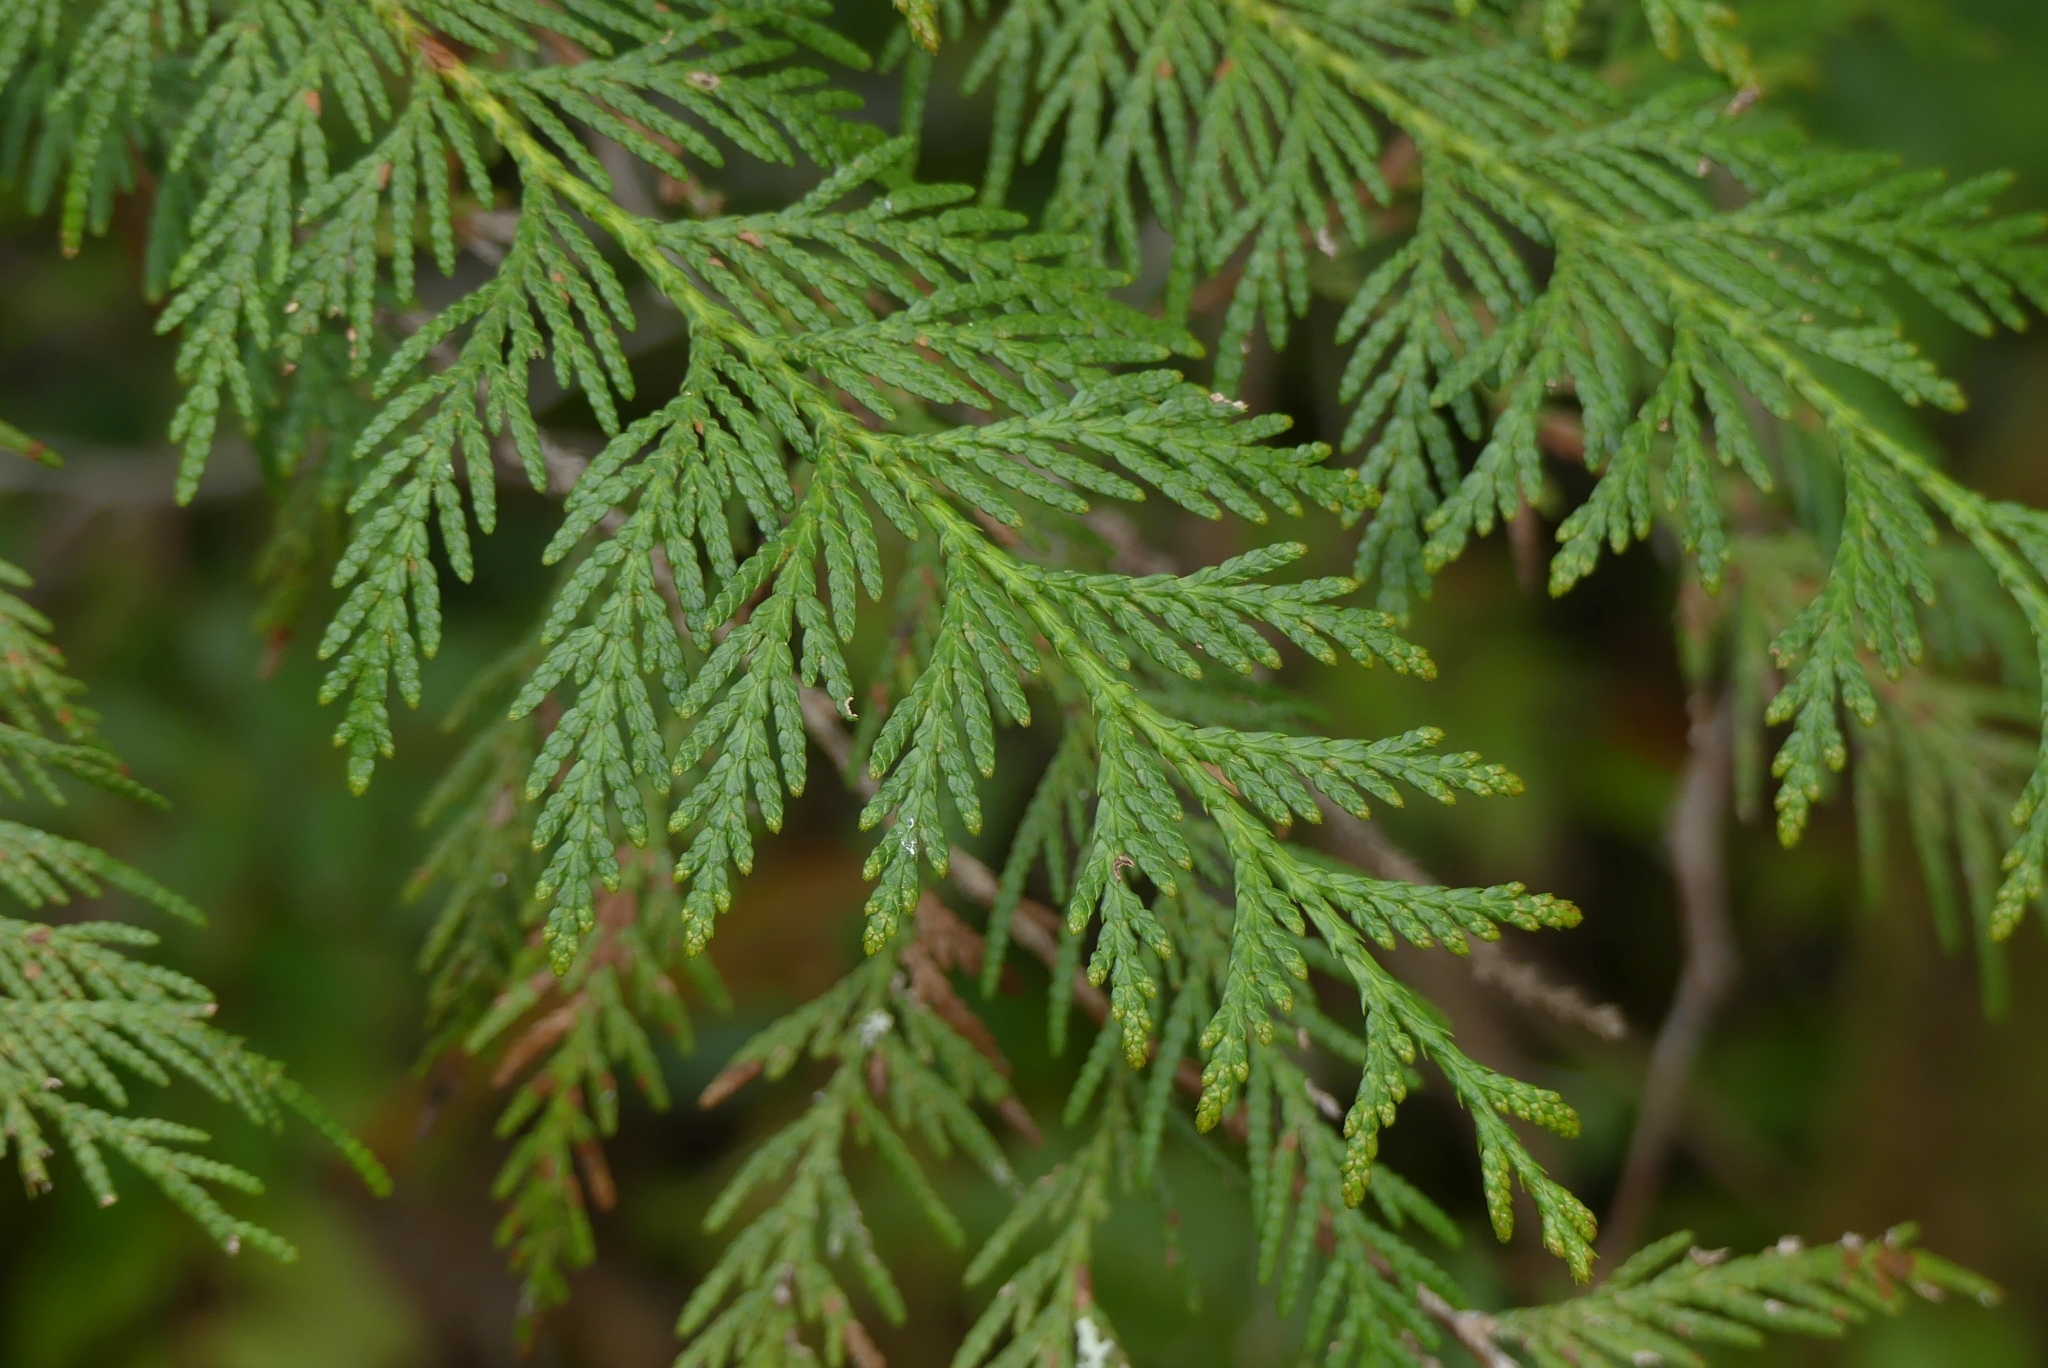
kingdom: Plantae
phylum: Tracheophyta
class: Pinopsida
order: Pinales
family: Cupressaceae
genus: Thuja
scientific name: Thuja plicata
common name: Western red-cedar
